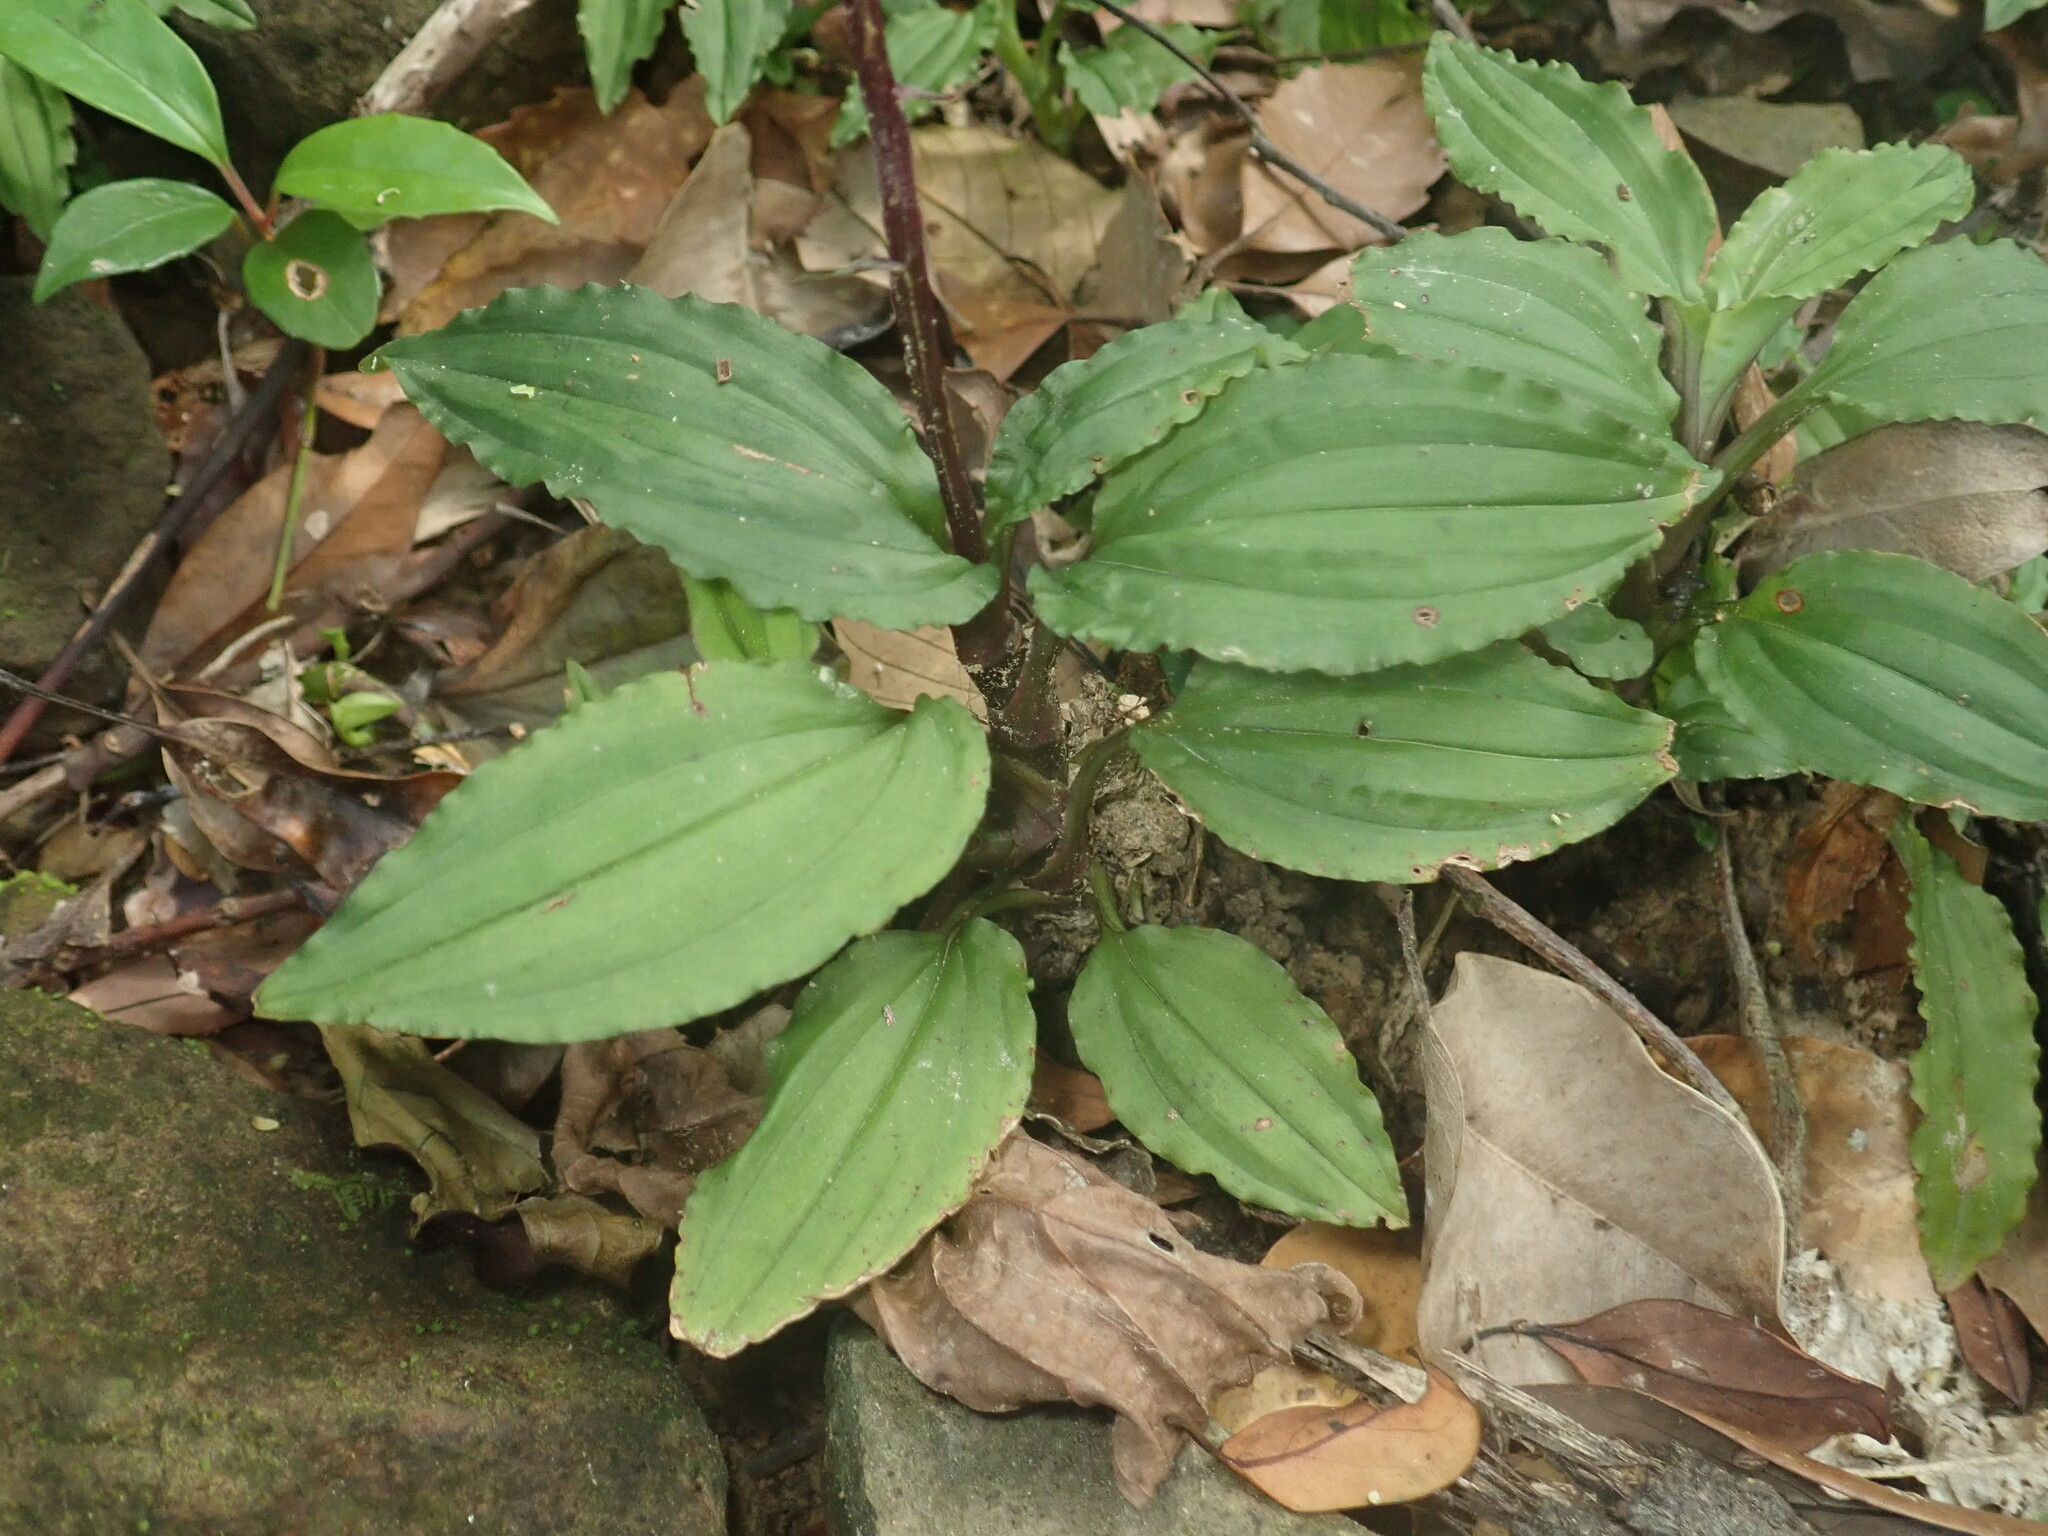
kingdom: Plantae
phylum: Tracheophyta
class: Liliopsida
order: Asparagales
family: Orchidaceae
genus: Crepidium
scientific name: Crepidium roohutuensis
